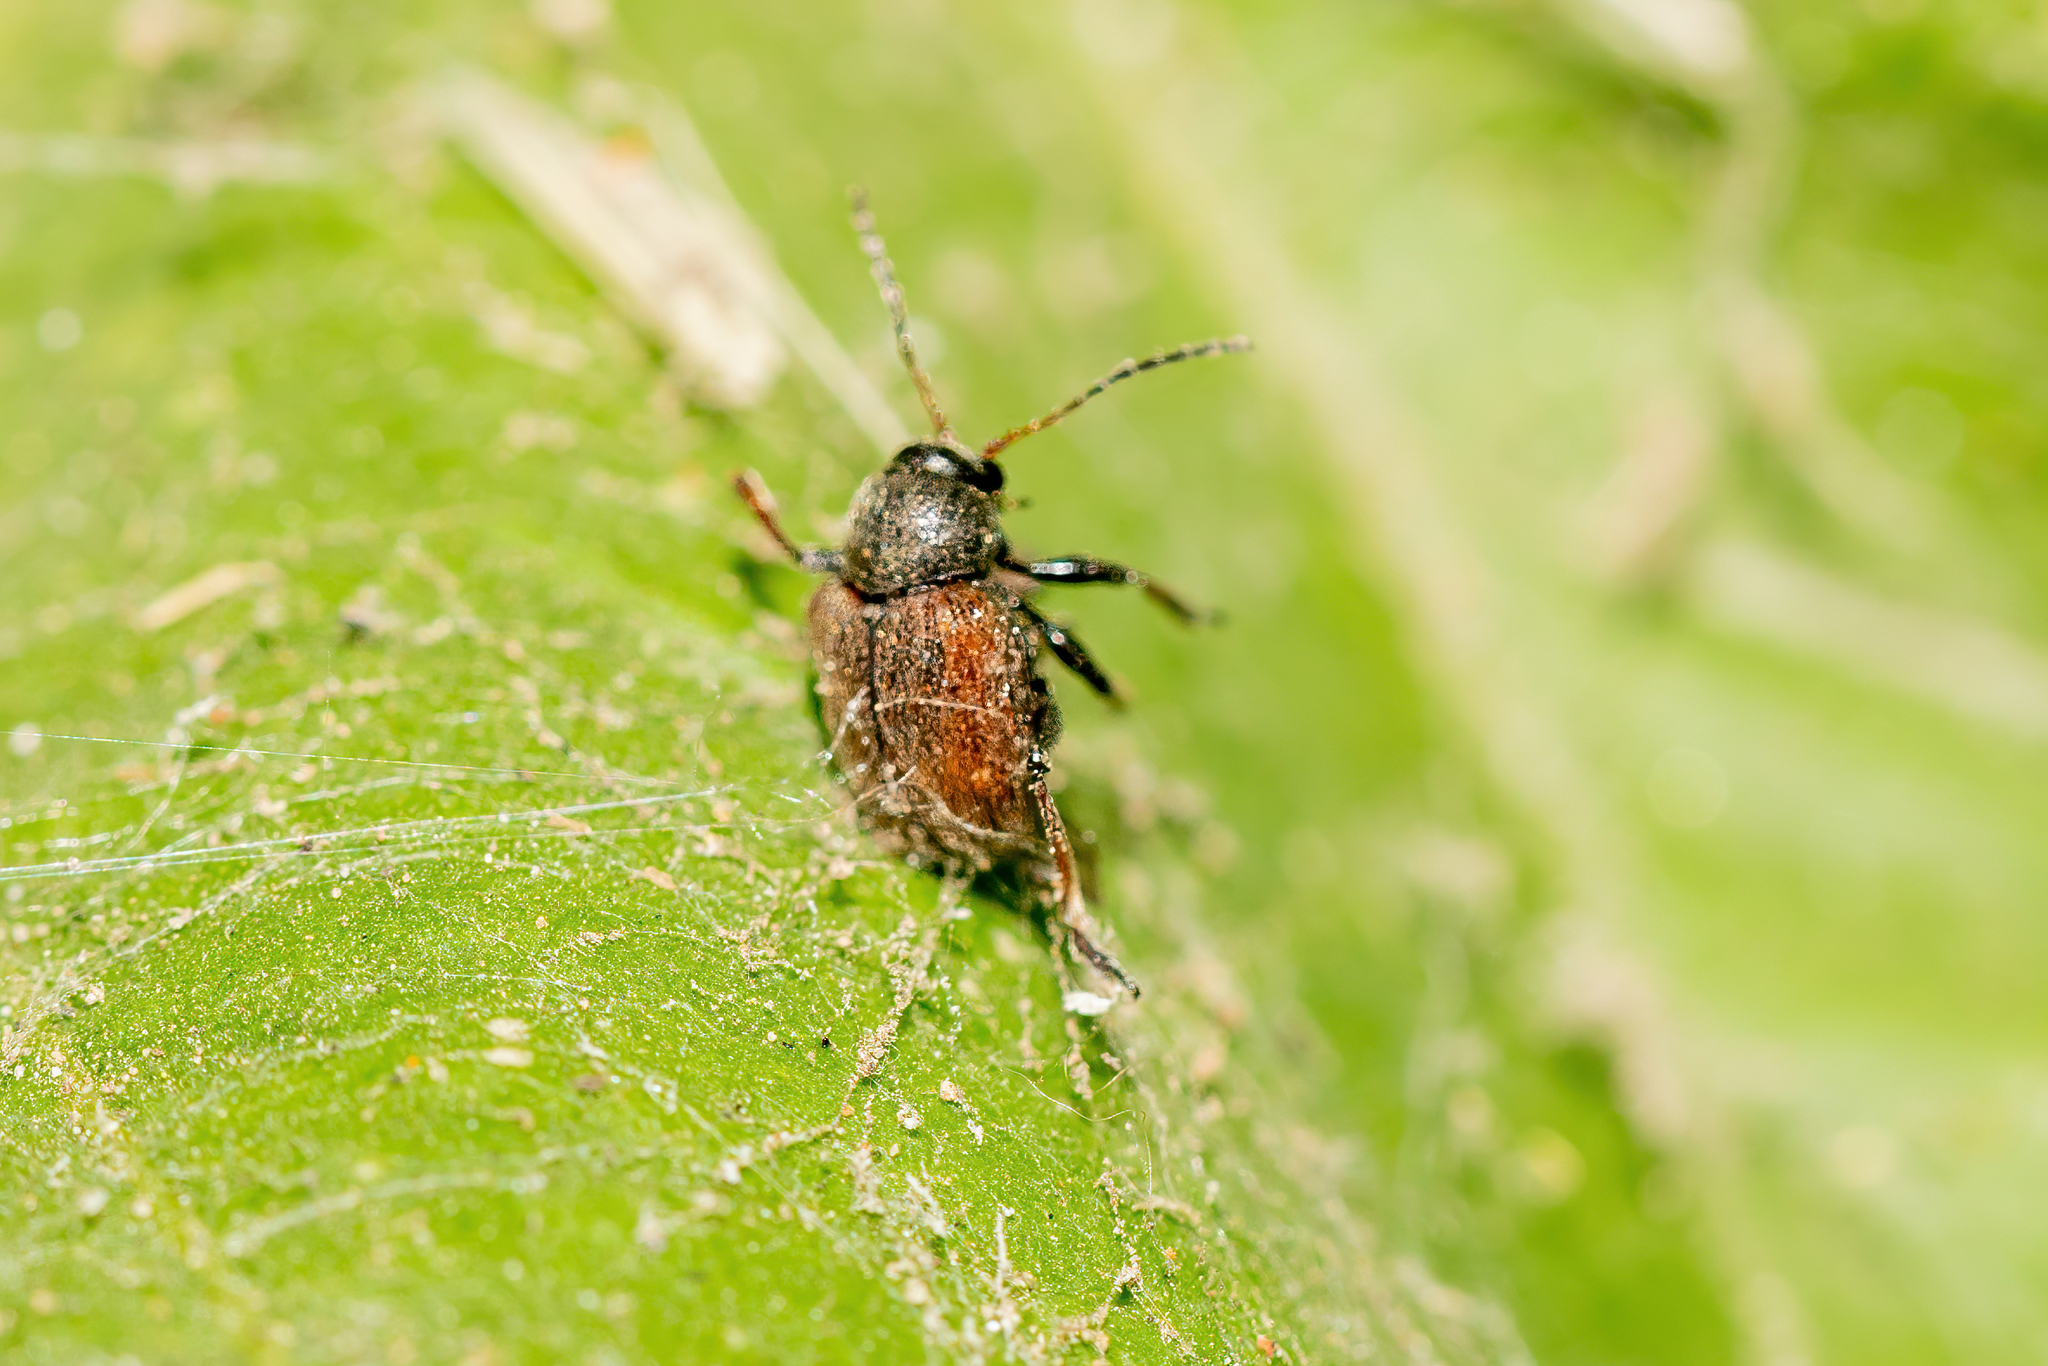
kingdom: Animalia
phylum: Arthropoda
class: Insecta
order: Coleoptera
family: Chrysomelidae
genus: Bromius
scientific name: Bromius obscurus
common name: Western grape rootworm
